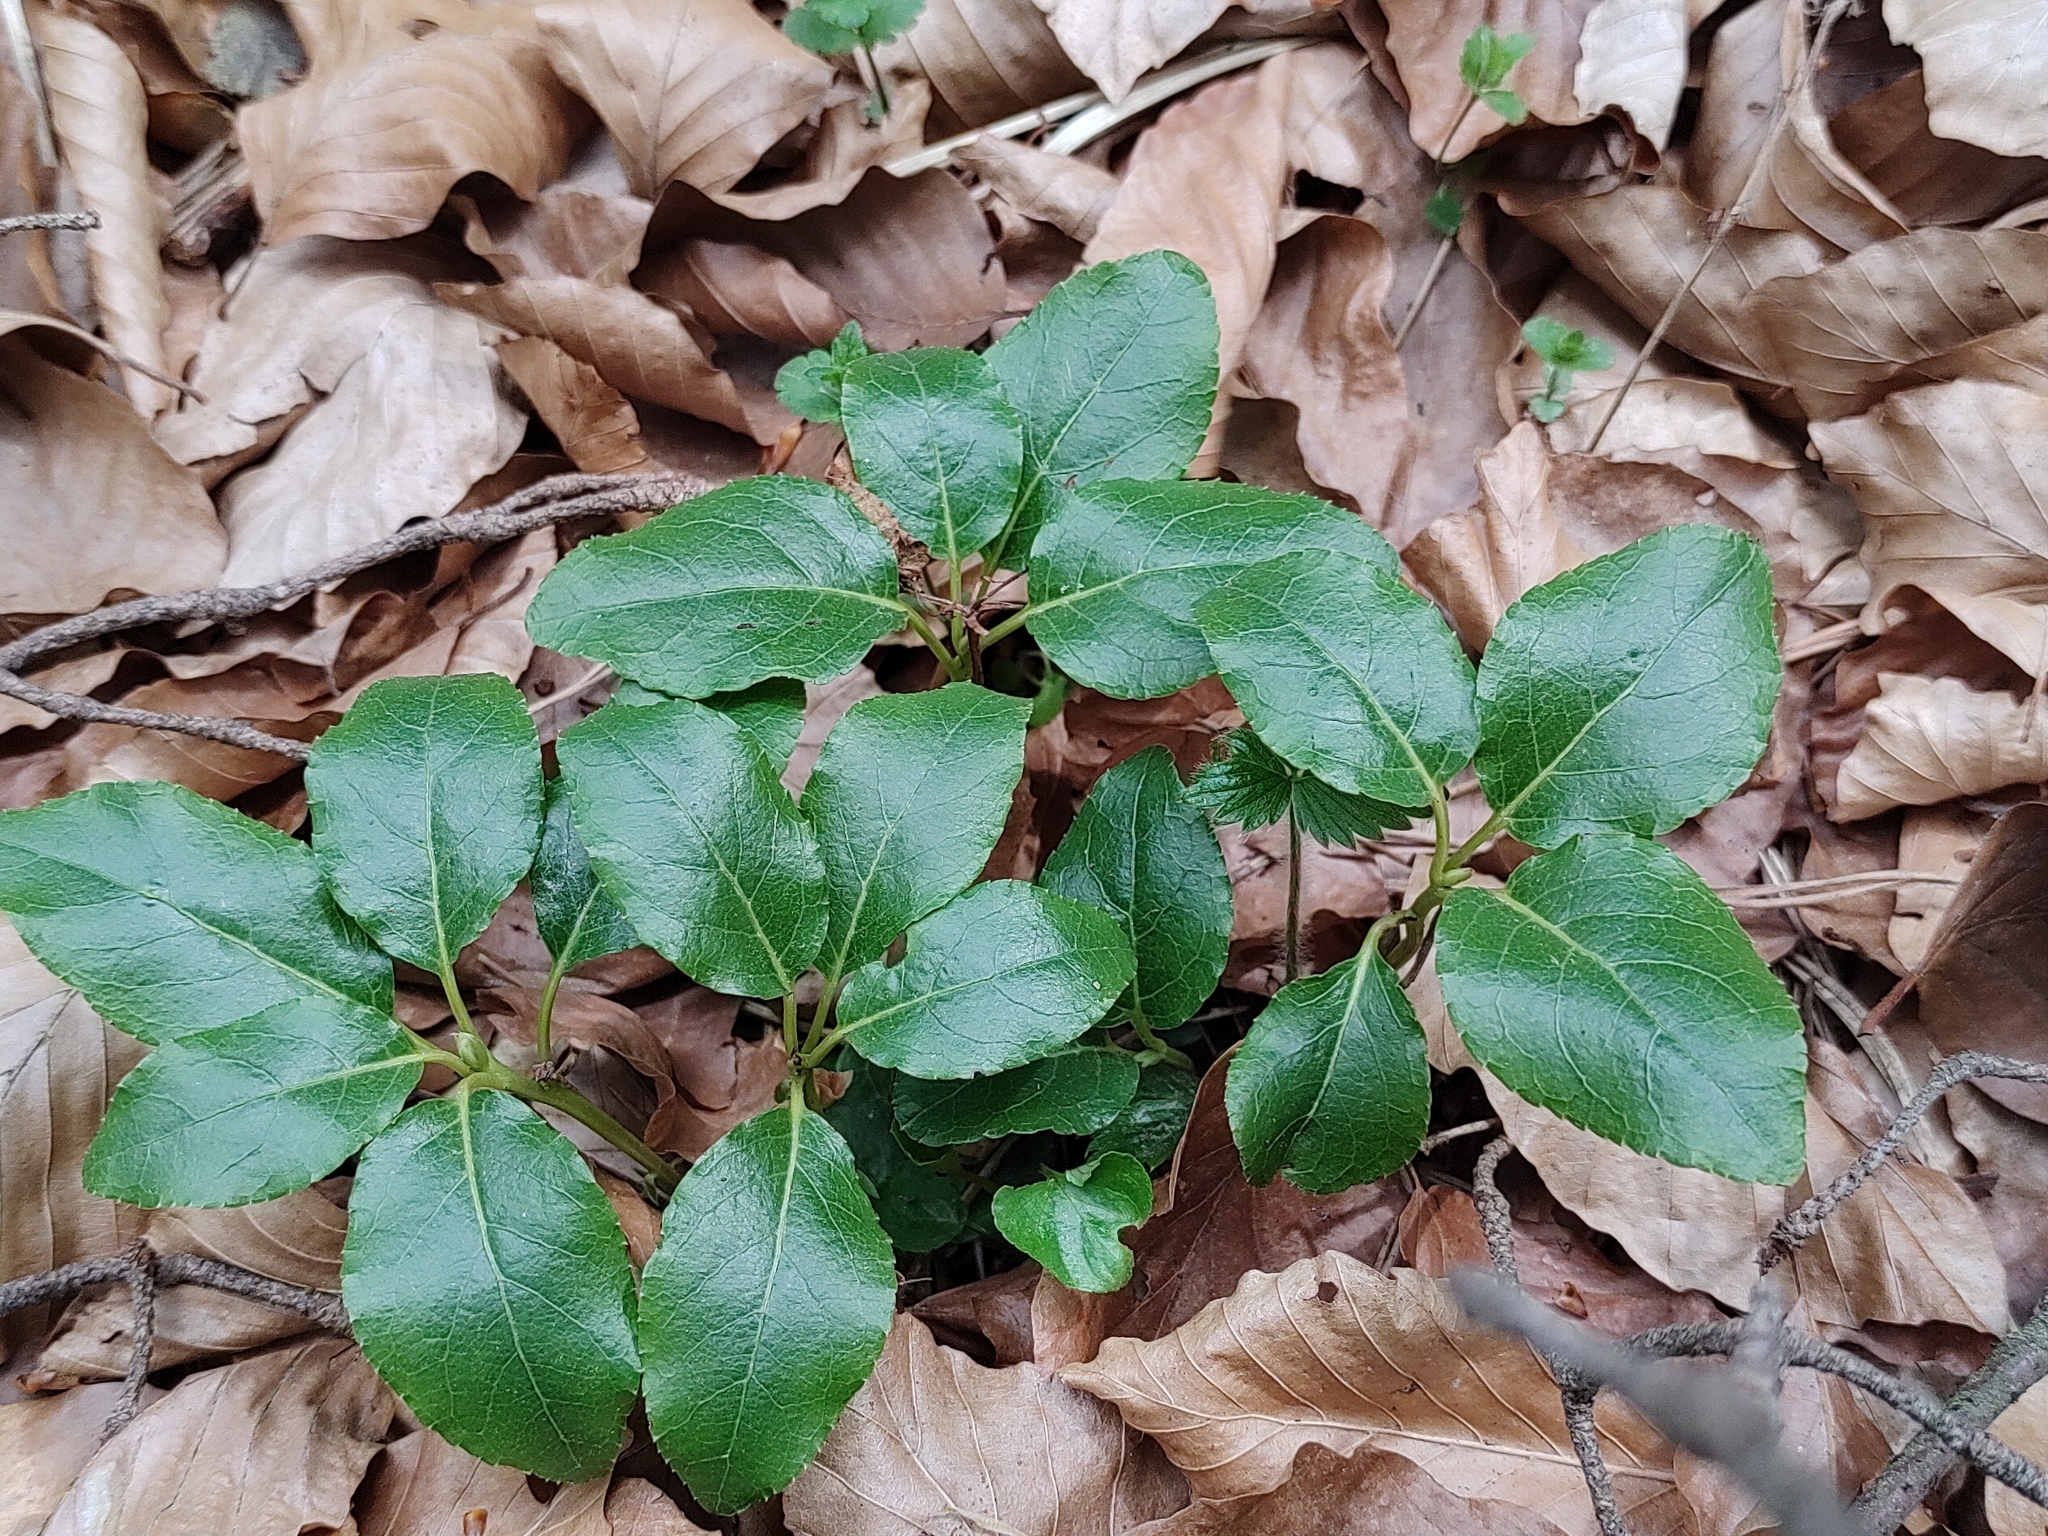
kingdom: Plantae
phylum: Tracheophyta
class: Magnoliopsida
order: Ericales
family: Ericaceae
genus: Orthilia
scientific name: Orthilia secunda
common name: One-sided orthilia
